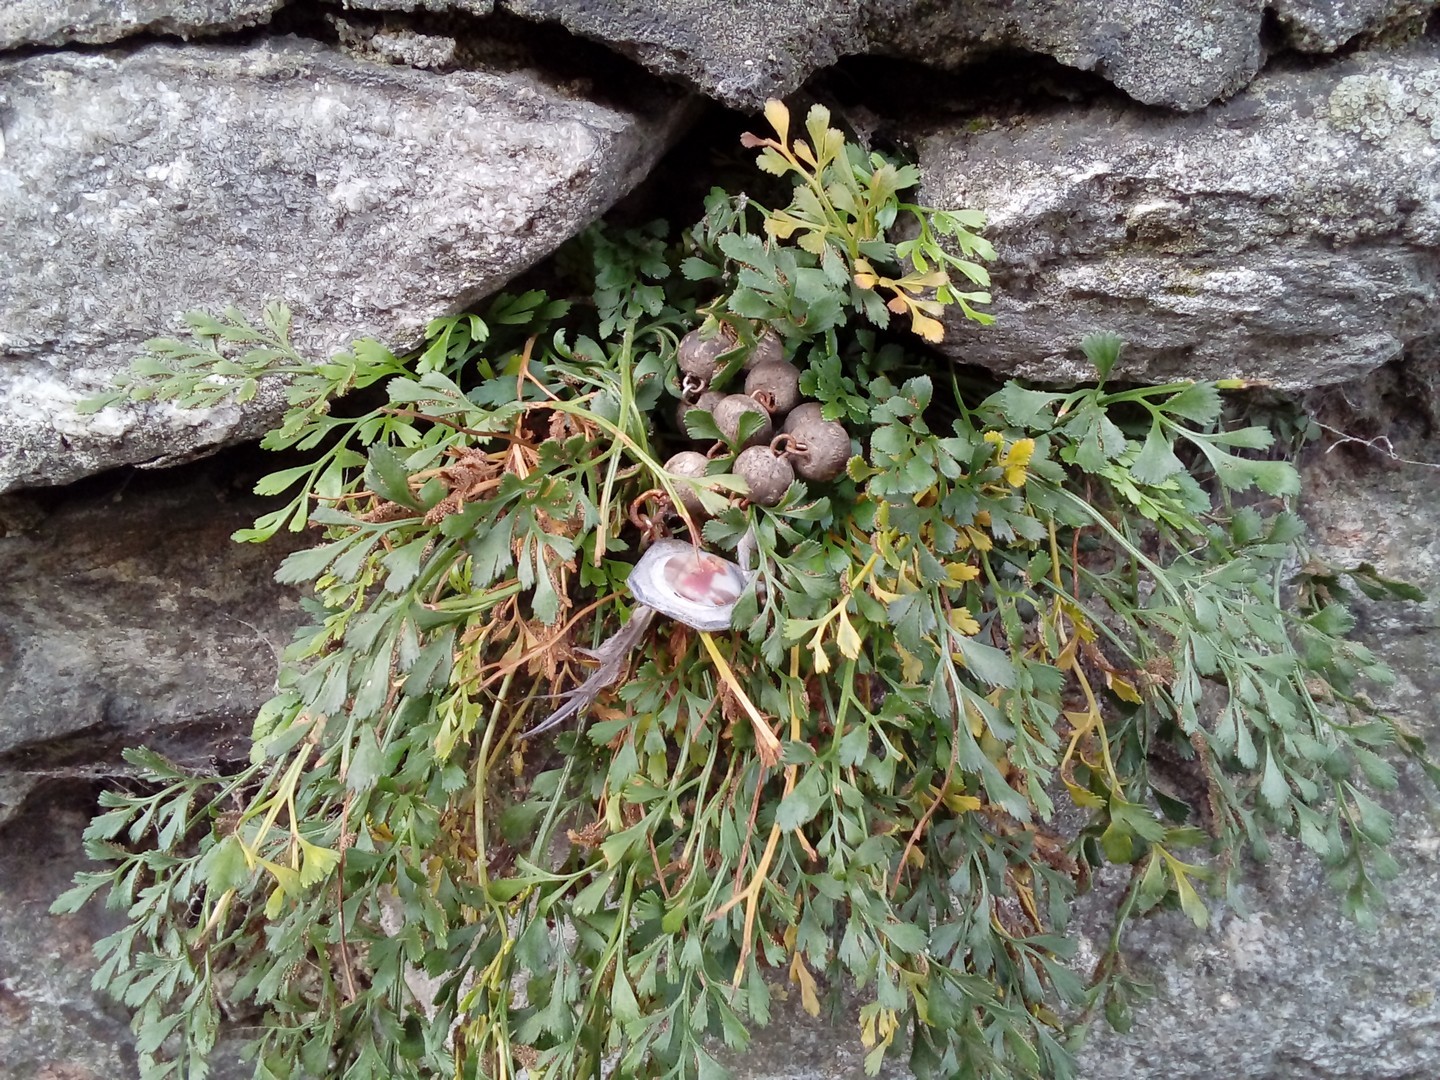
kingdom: Plantae
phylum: Tracheophyta
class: Polypodiopsida
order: Polypodiales
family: Aspleniaceae
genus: Asplenium
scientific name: Asplenium ruta-muraria
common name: Wall-rue
